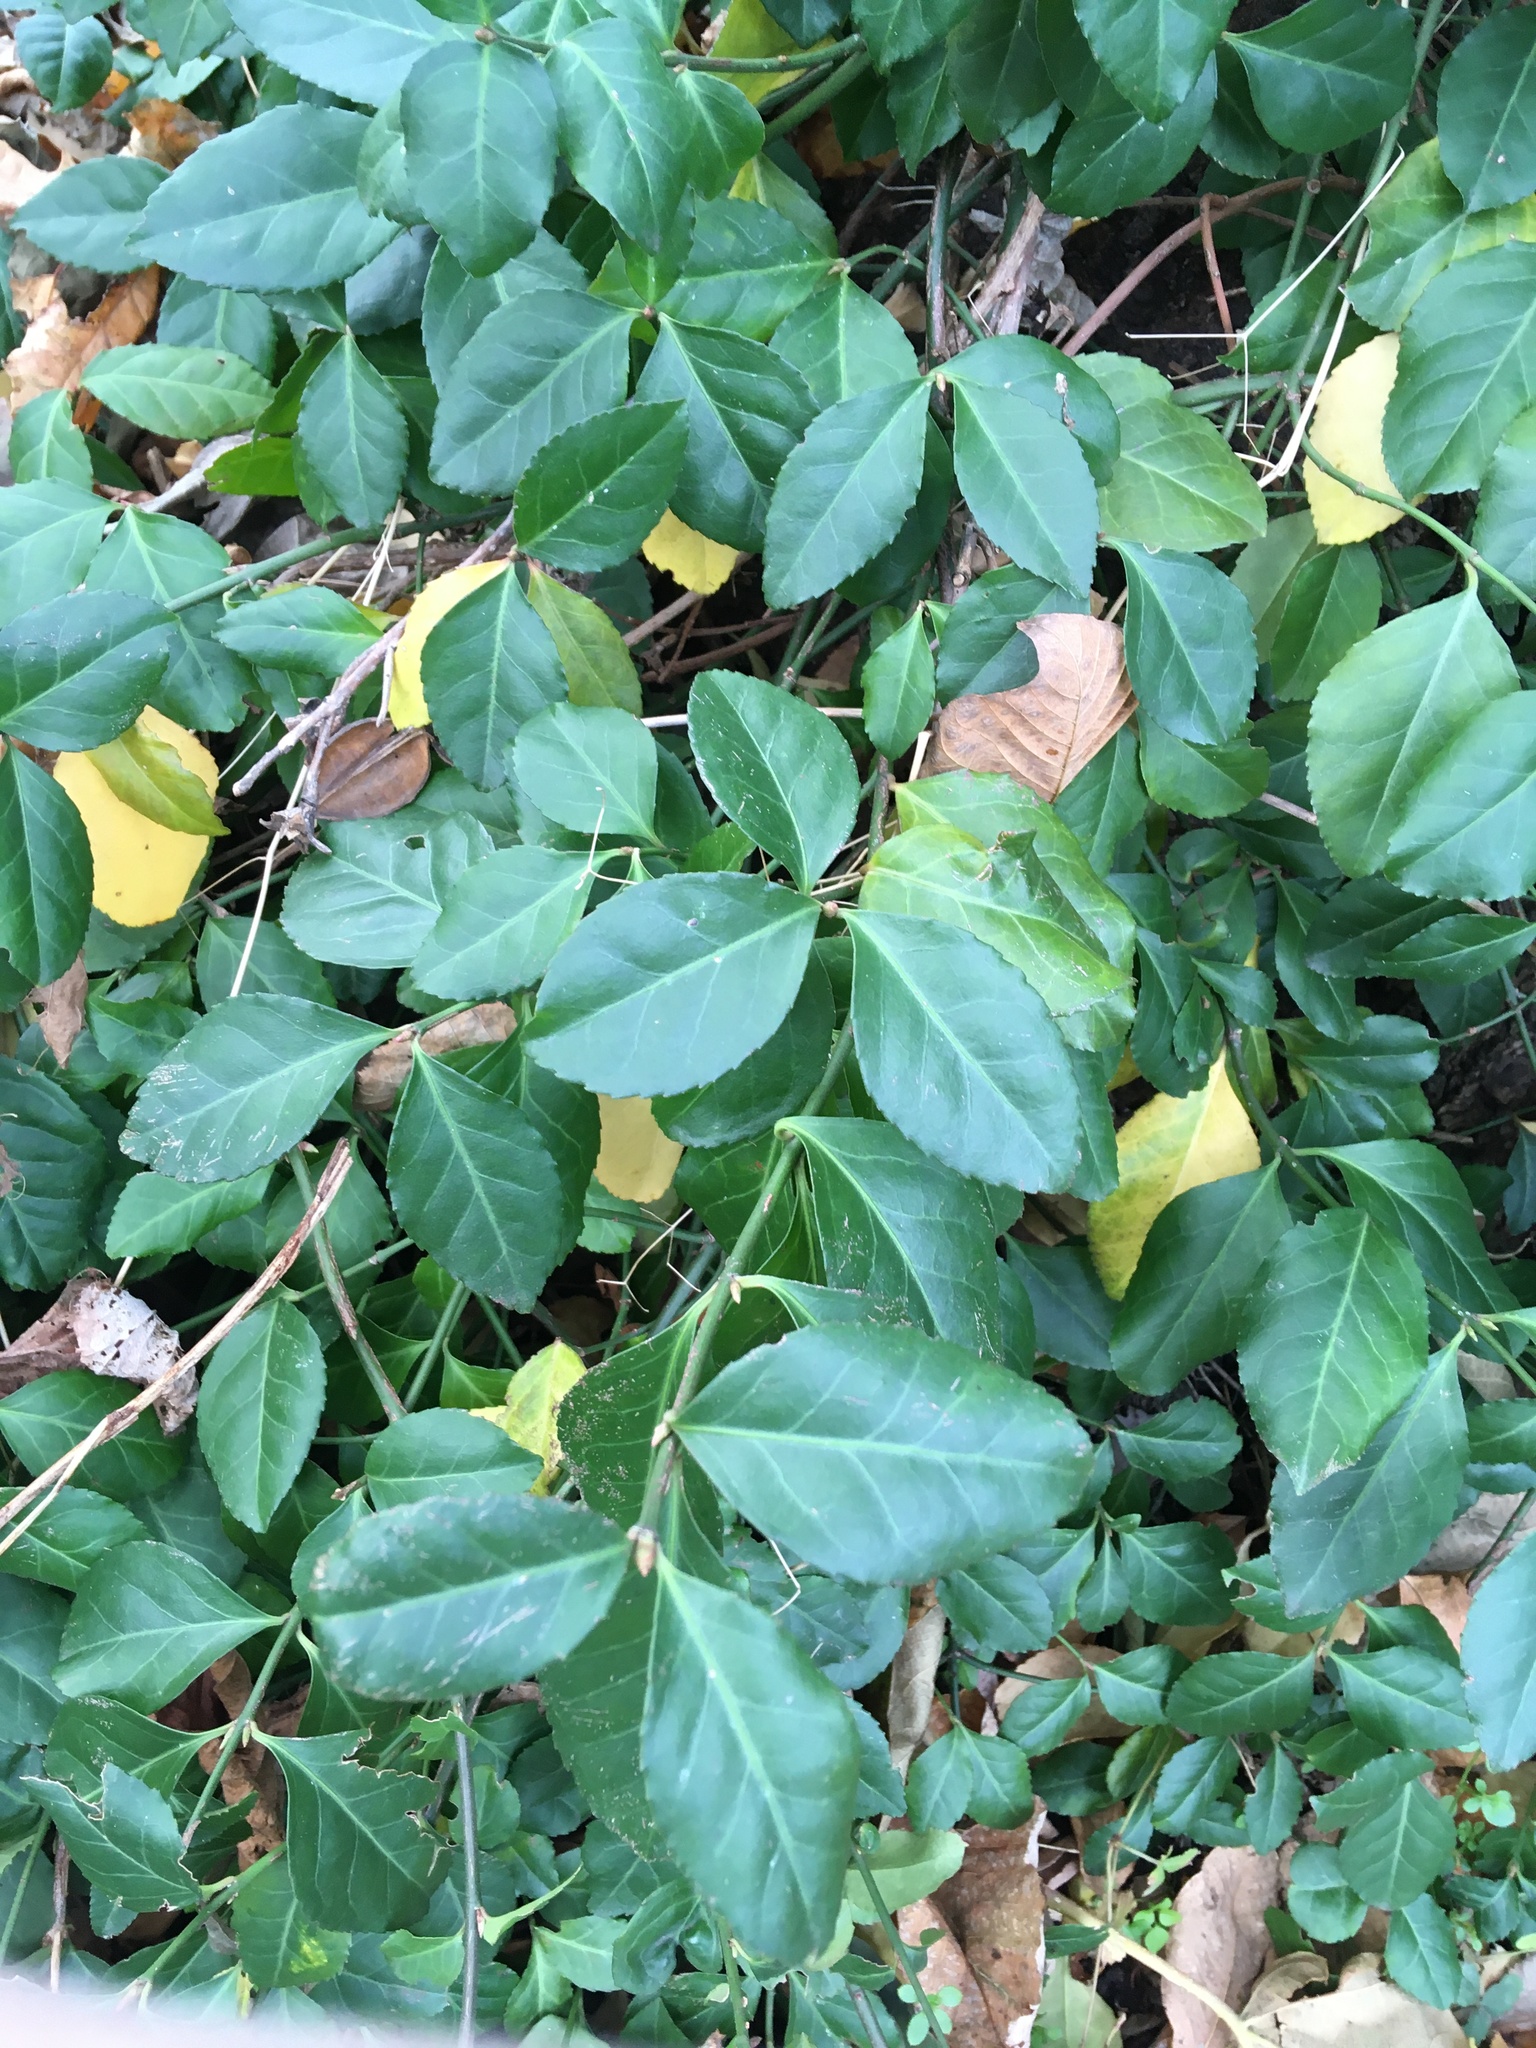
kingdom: Plantae
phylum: Tracheophyta
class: Magnoliopsida
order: Celastrales
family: Celastraceae
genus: Euonymus
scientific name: Euonymus fortunei
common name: Climbing euonymus
